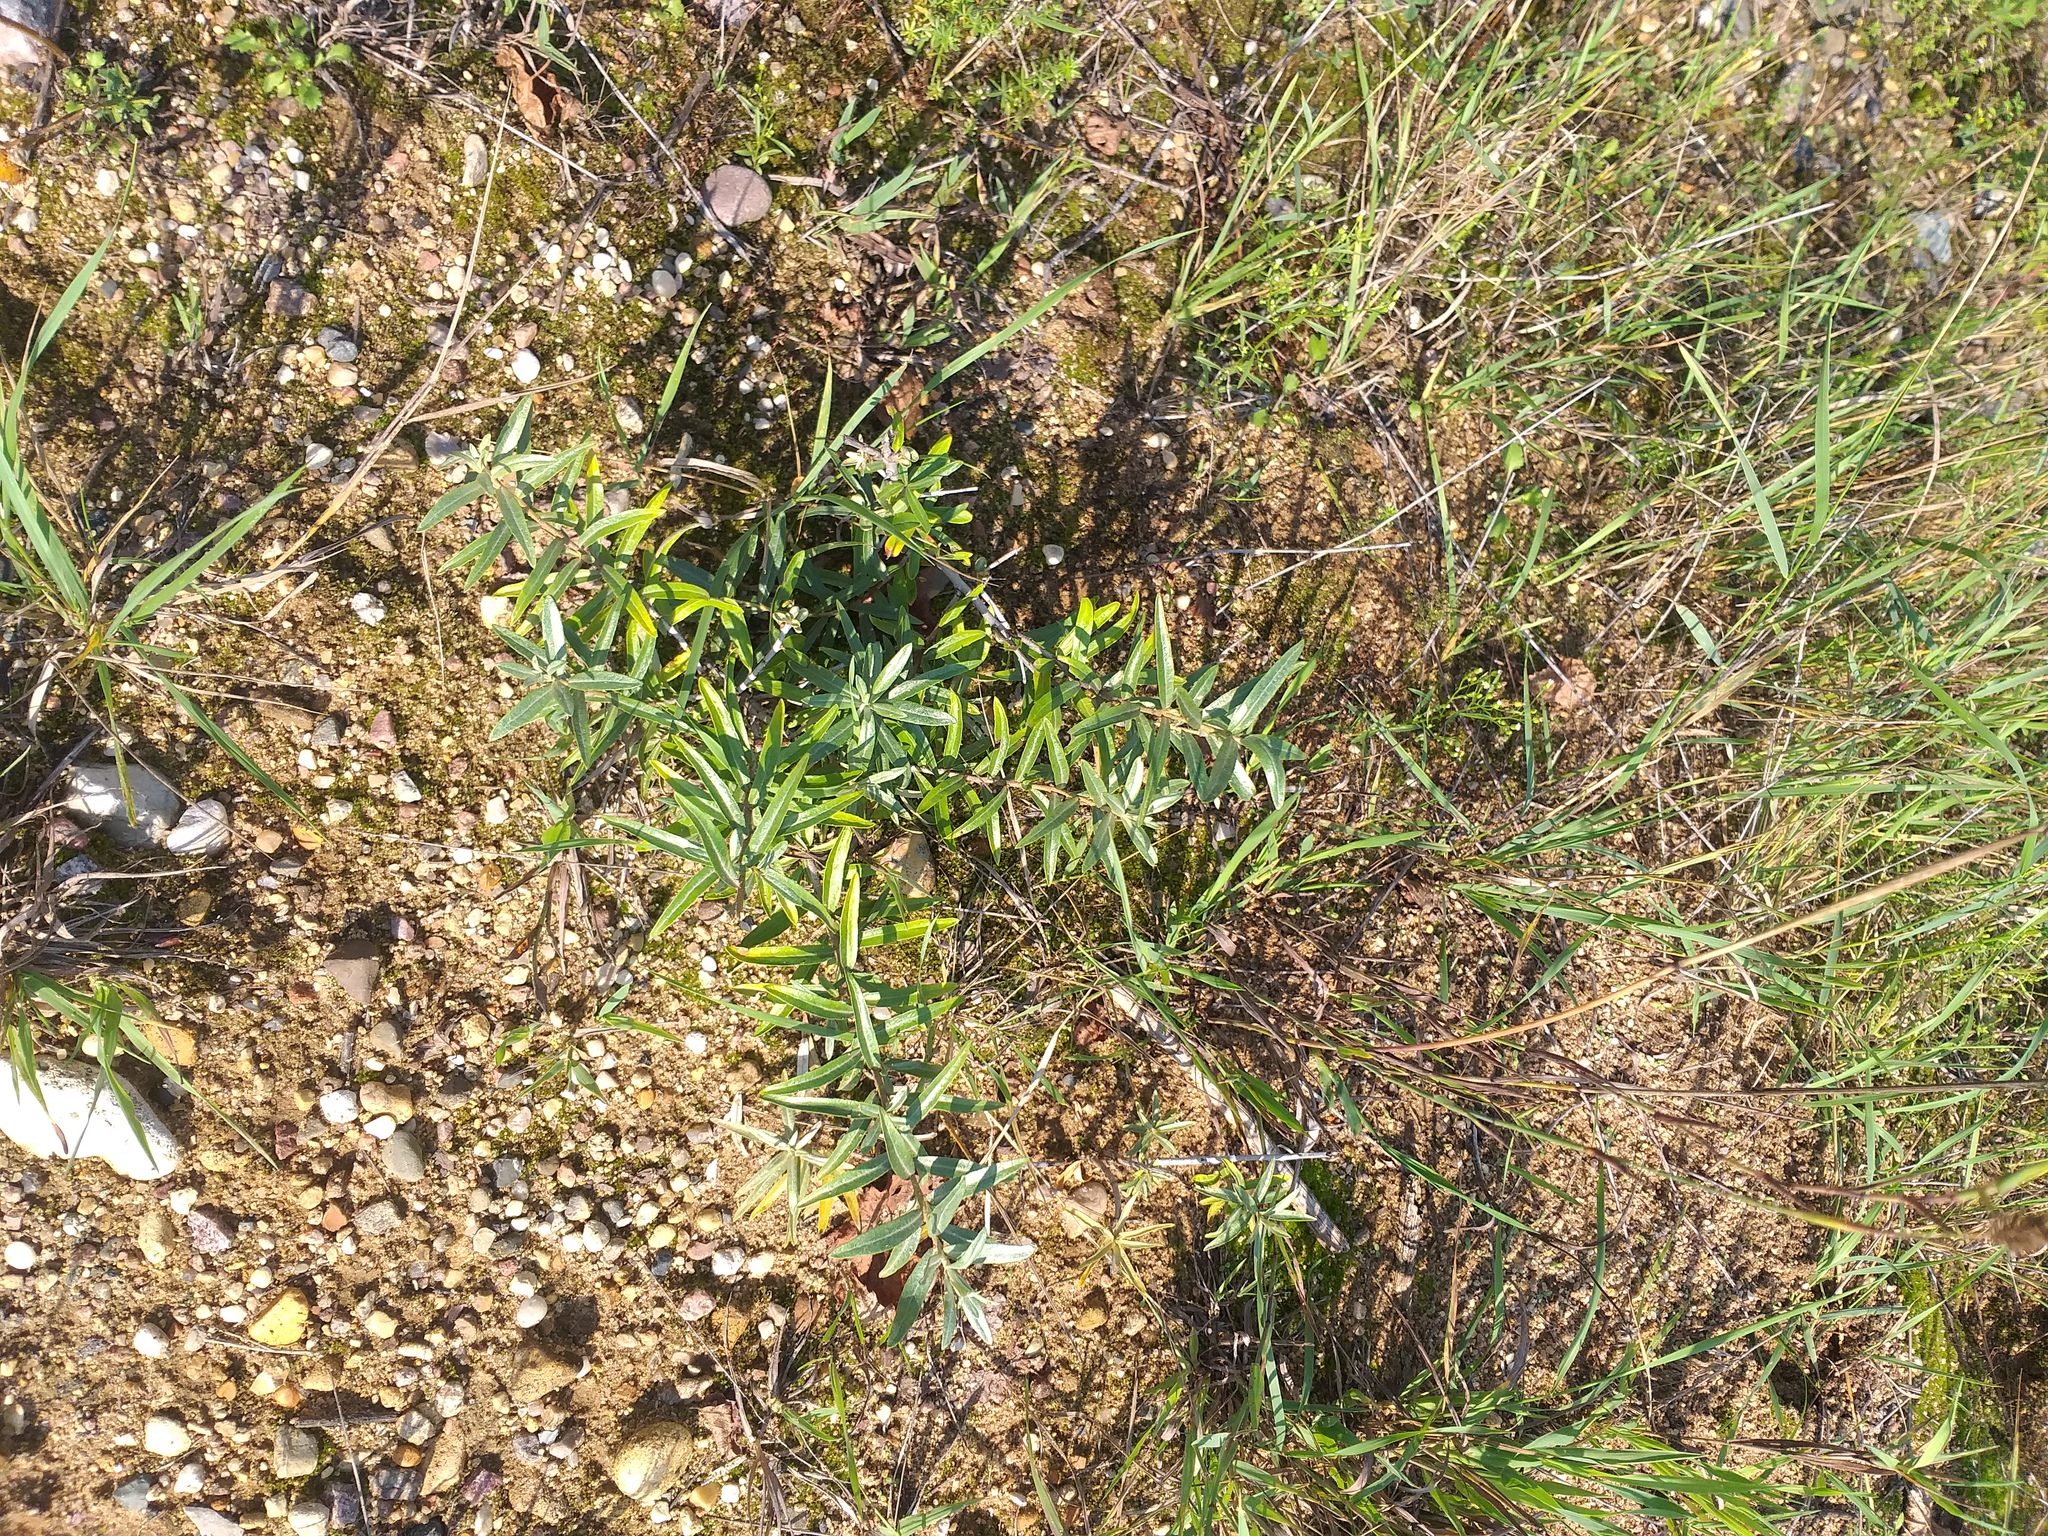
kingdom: Plantae
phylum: Tracheophyta
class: Magnoliopsida
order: Rosales
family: Elaeagnaceae
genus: Hippophae
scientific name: Hippophae rhamnoides
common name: Sea-buckthorn
